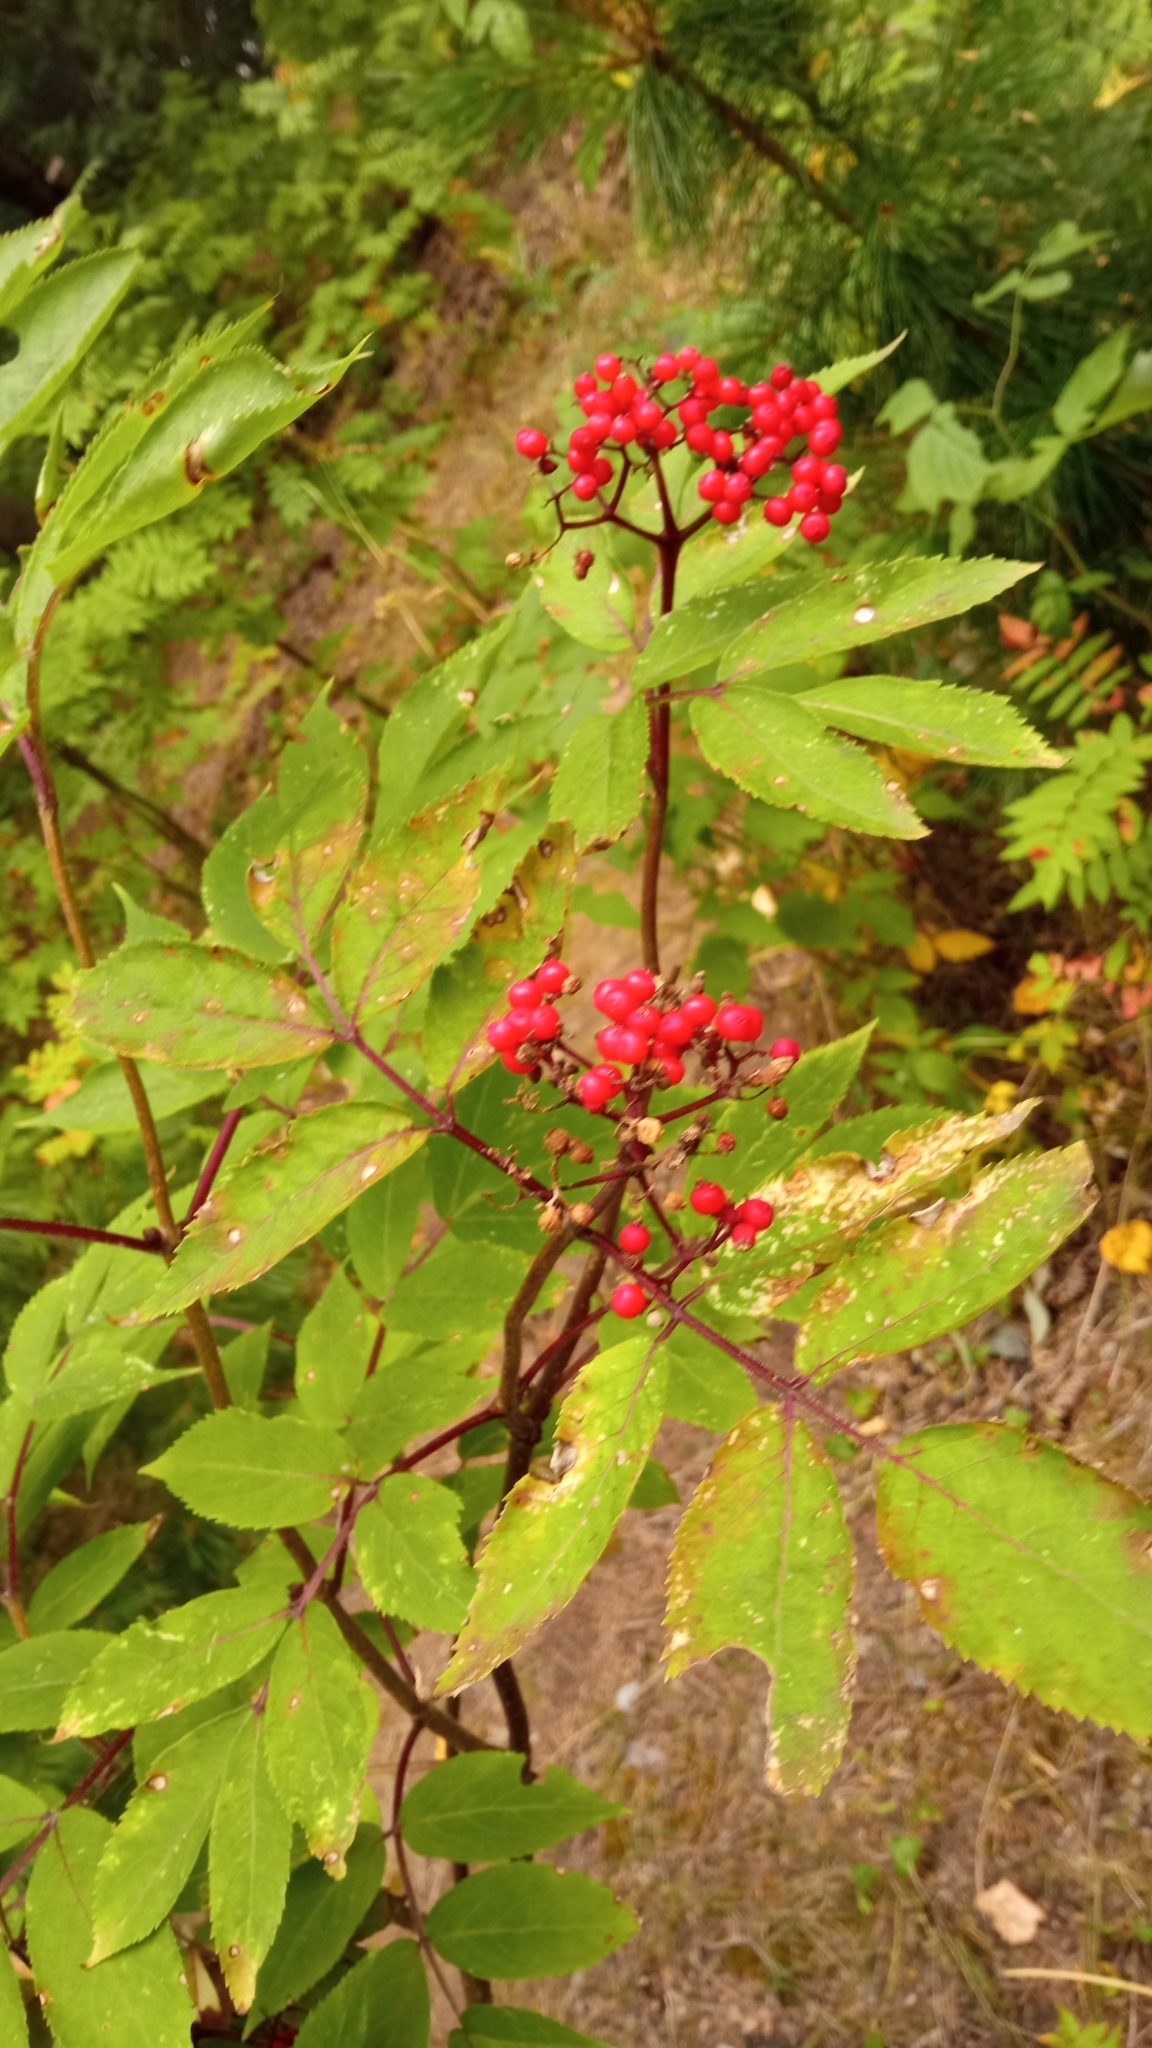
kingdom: Plantae
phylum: Tracheophyta
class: Magnoliopsida
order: Dipsacales
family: Viburnaceae
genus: Sambucus
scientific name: Sambucus sibirica
